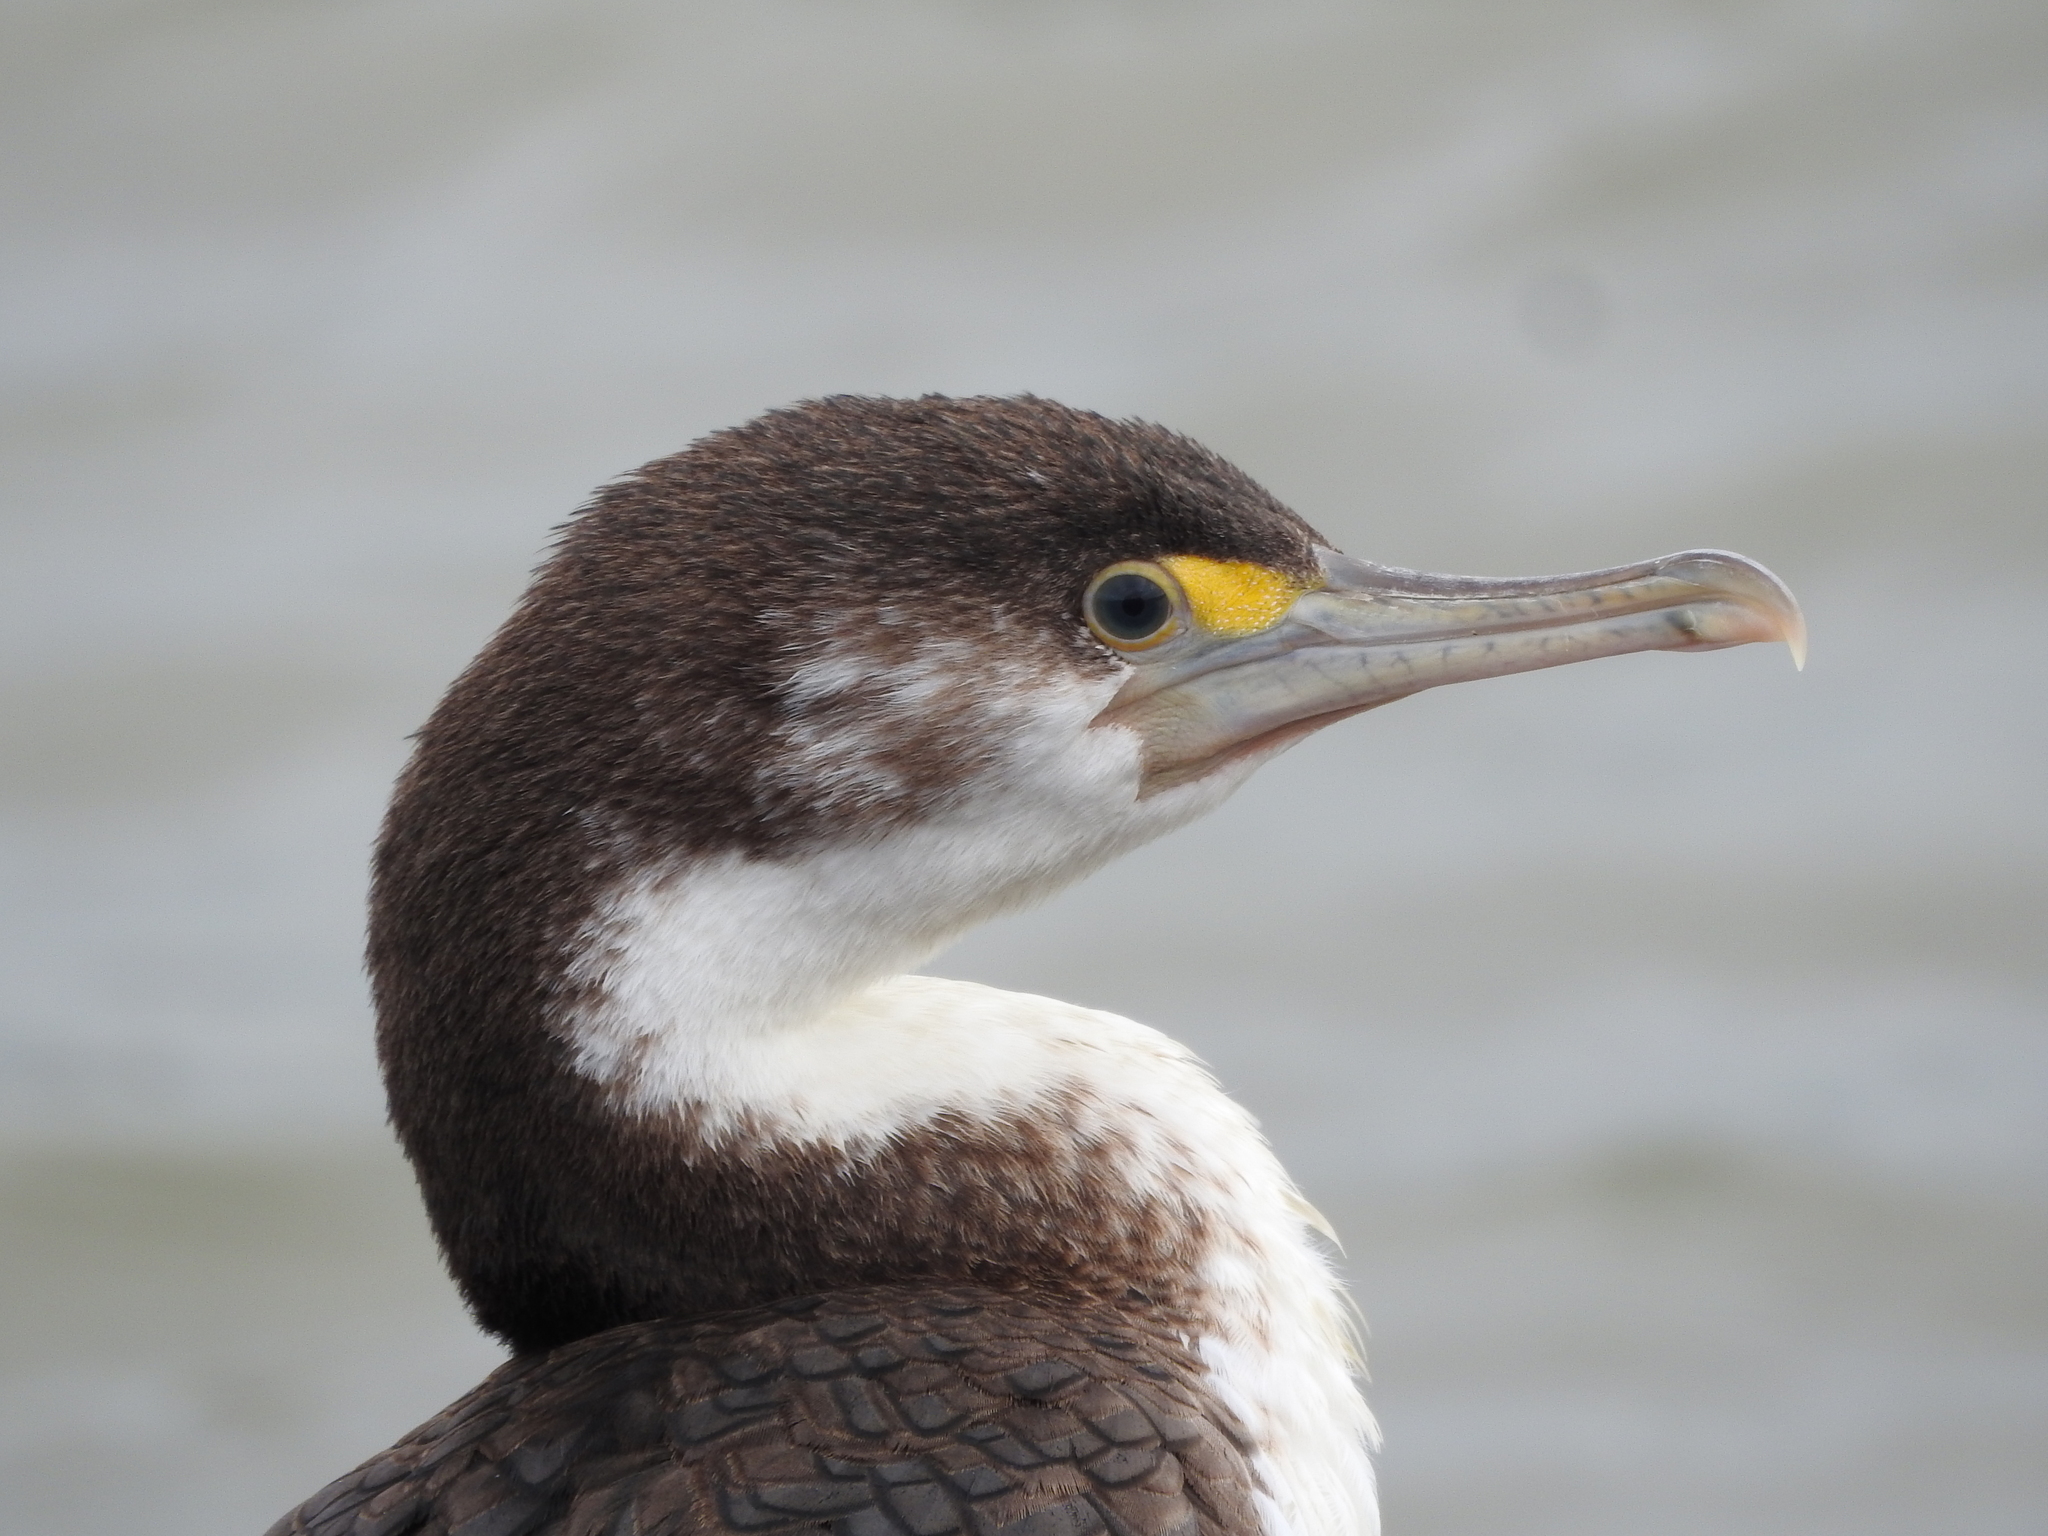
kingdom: Animalia
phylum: Chordata
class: Aves
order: Suliformes
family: Phalacrocoracidae
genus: Phalacrocorax
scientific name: Phalacrocorax varius
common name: Pied cormorant
